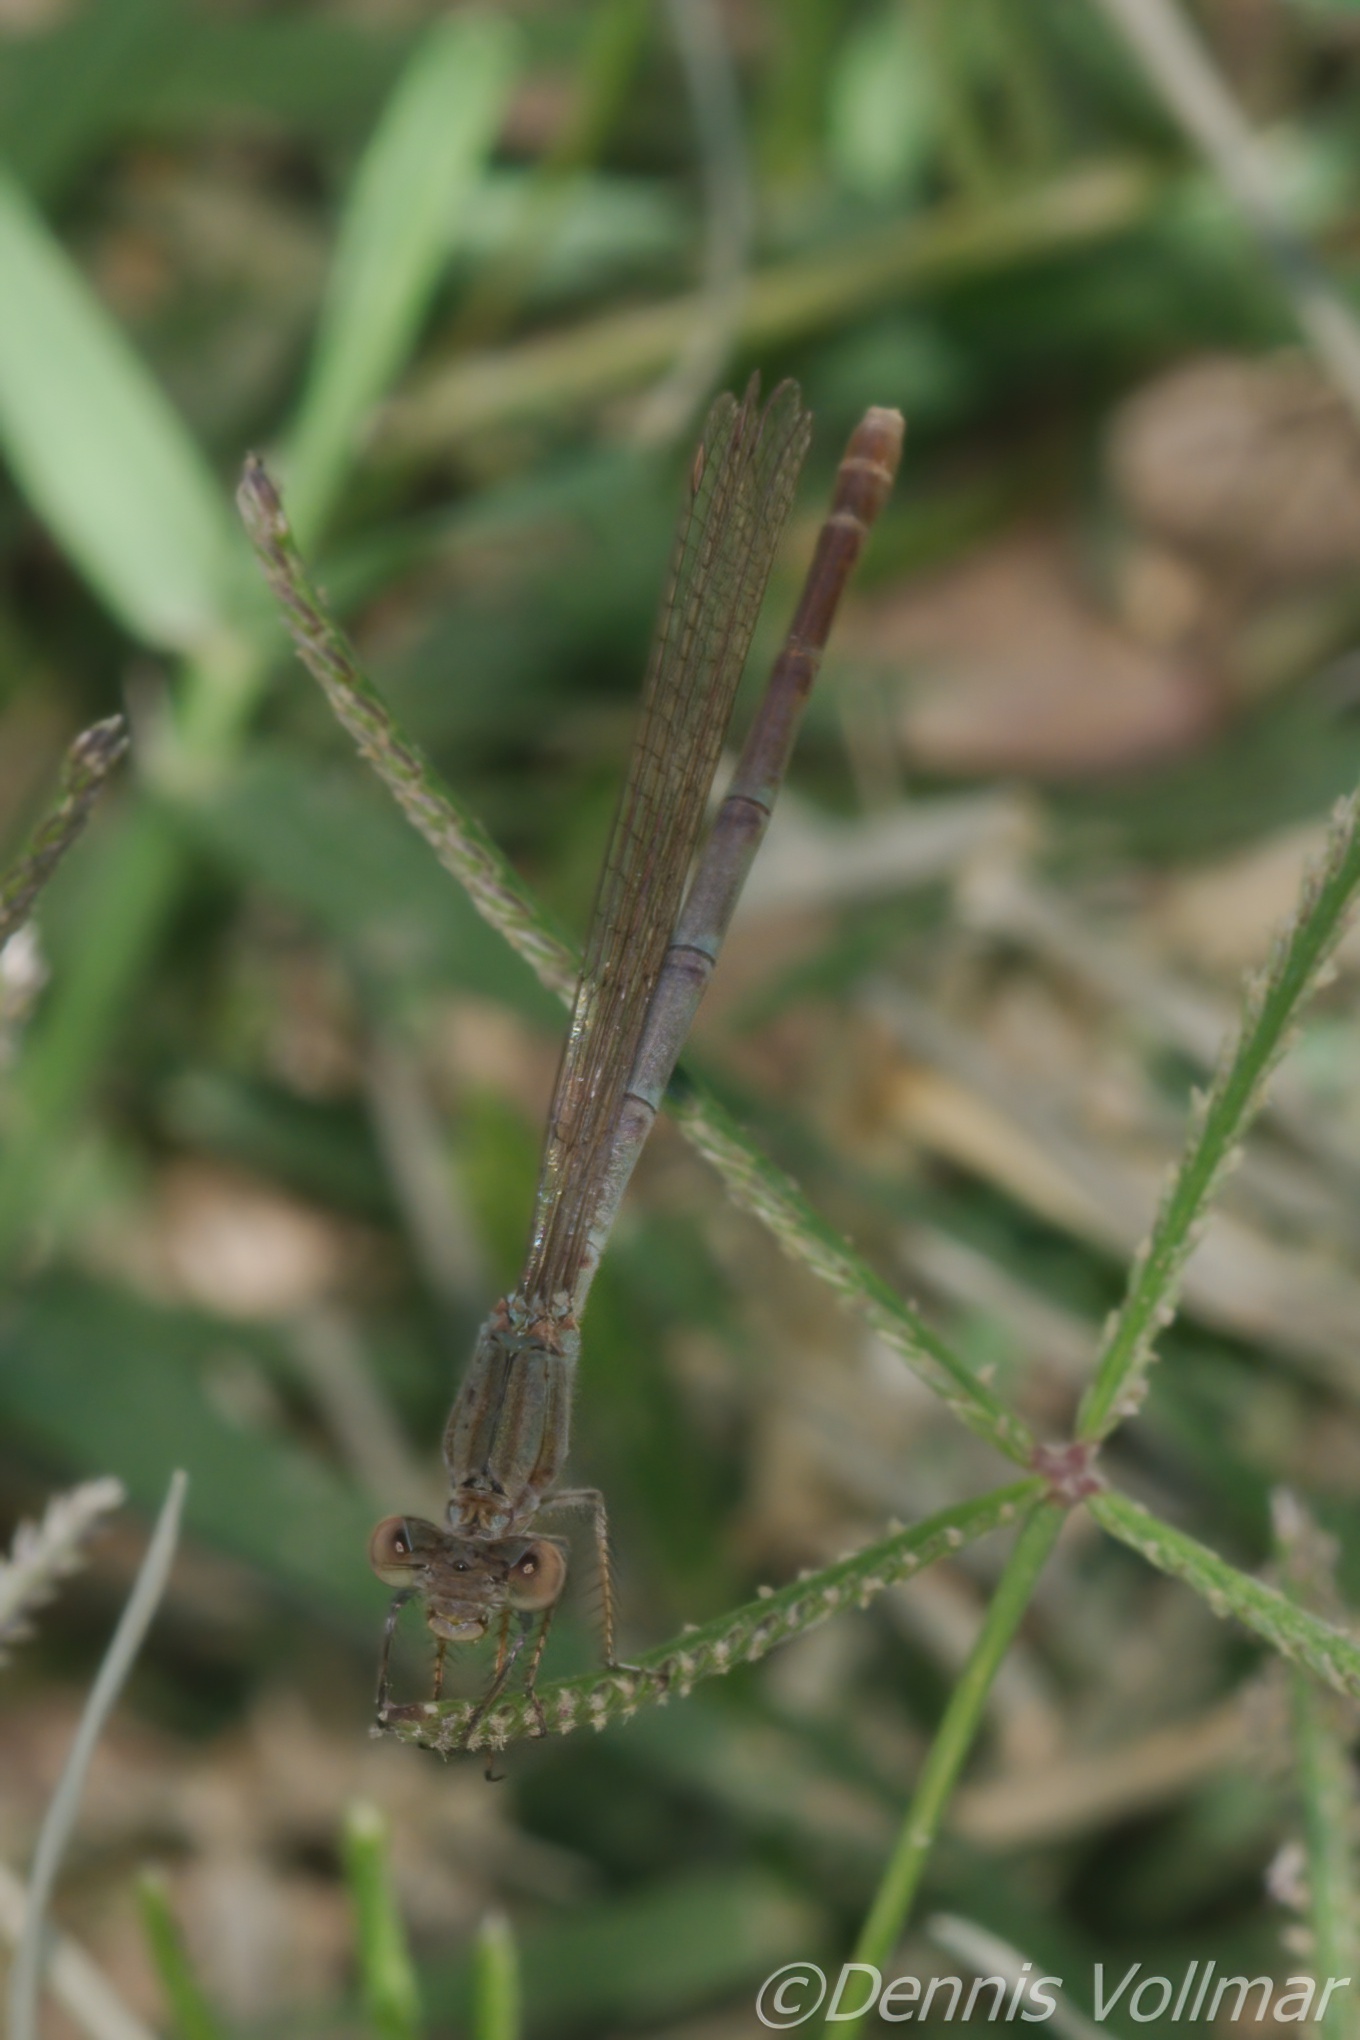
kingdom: Animalia
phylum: Arthropoda
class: Insecta
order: Odonata
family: Coenagrionidae
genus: Argia
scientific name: Argia sedula
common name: Blue-ringed dancer
